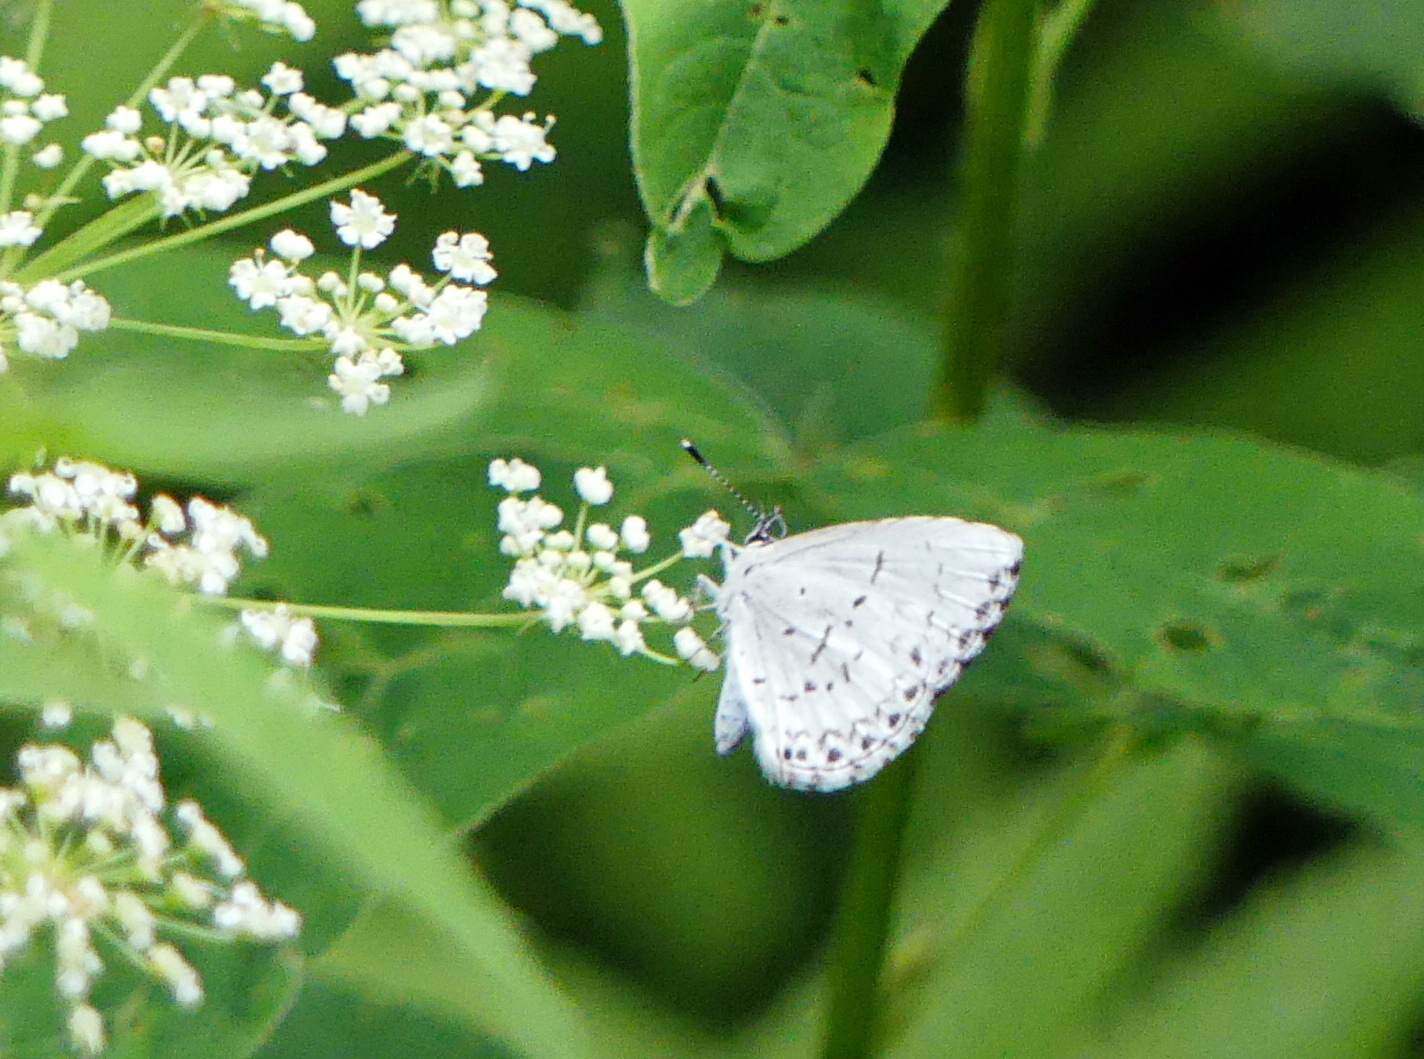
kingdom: Animalia
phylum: Arthropoda
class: Insecta
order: Lepidoptera
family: Lycaenidae
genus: Celastrina
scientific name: Celastrina lucia
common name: Lucia azure
